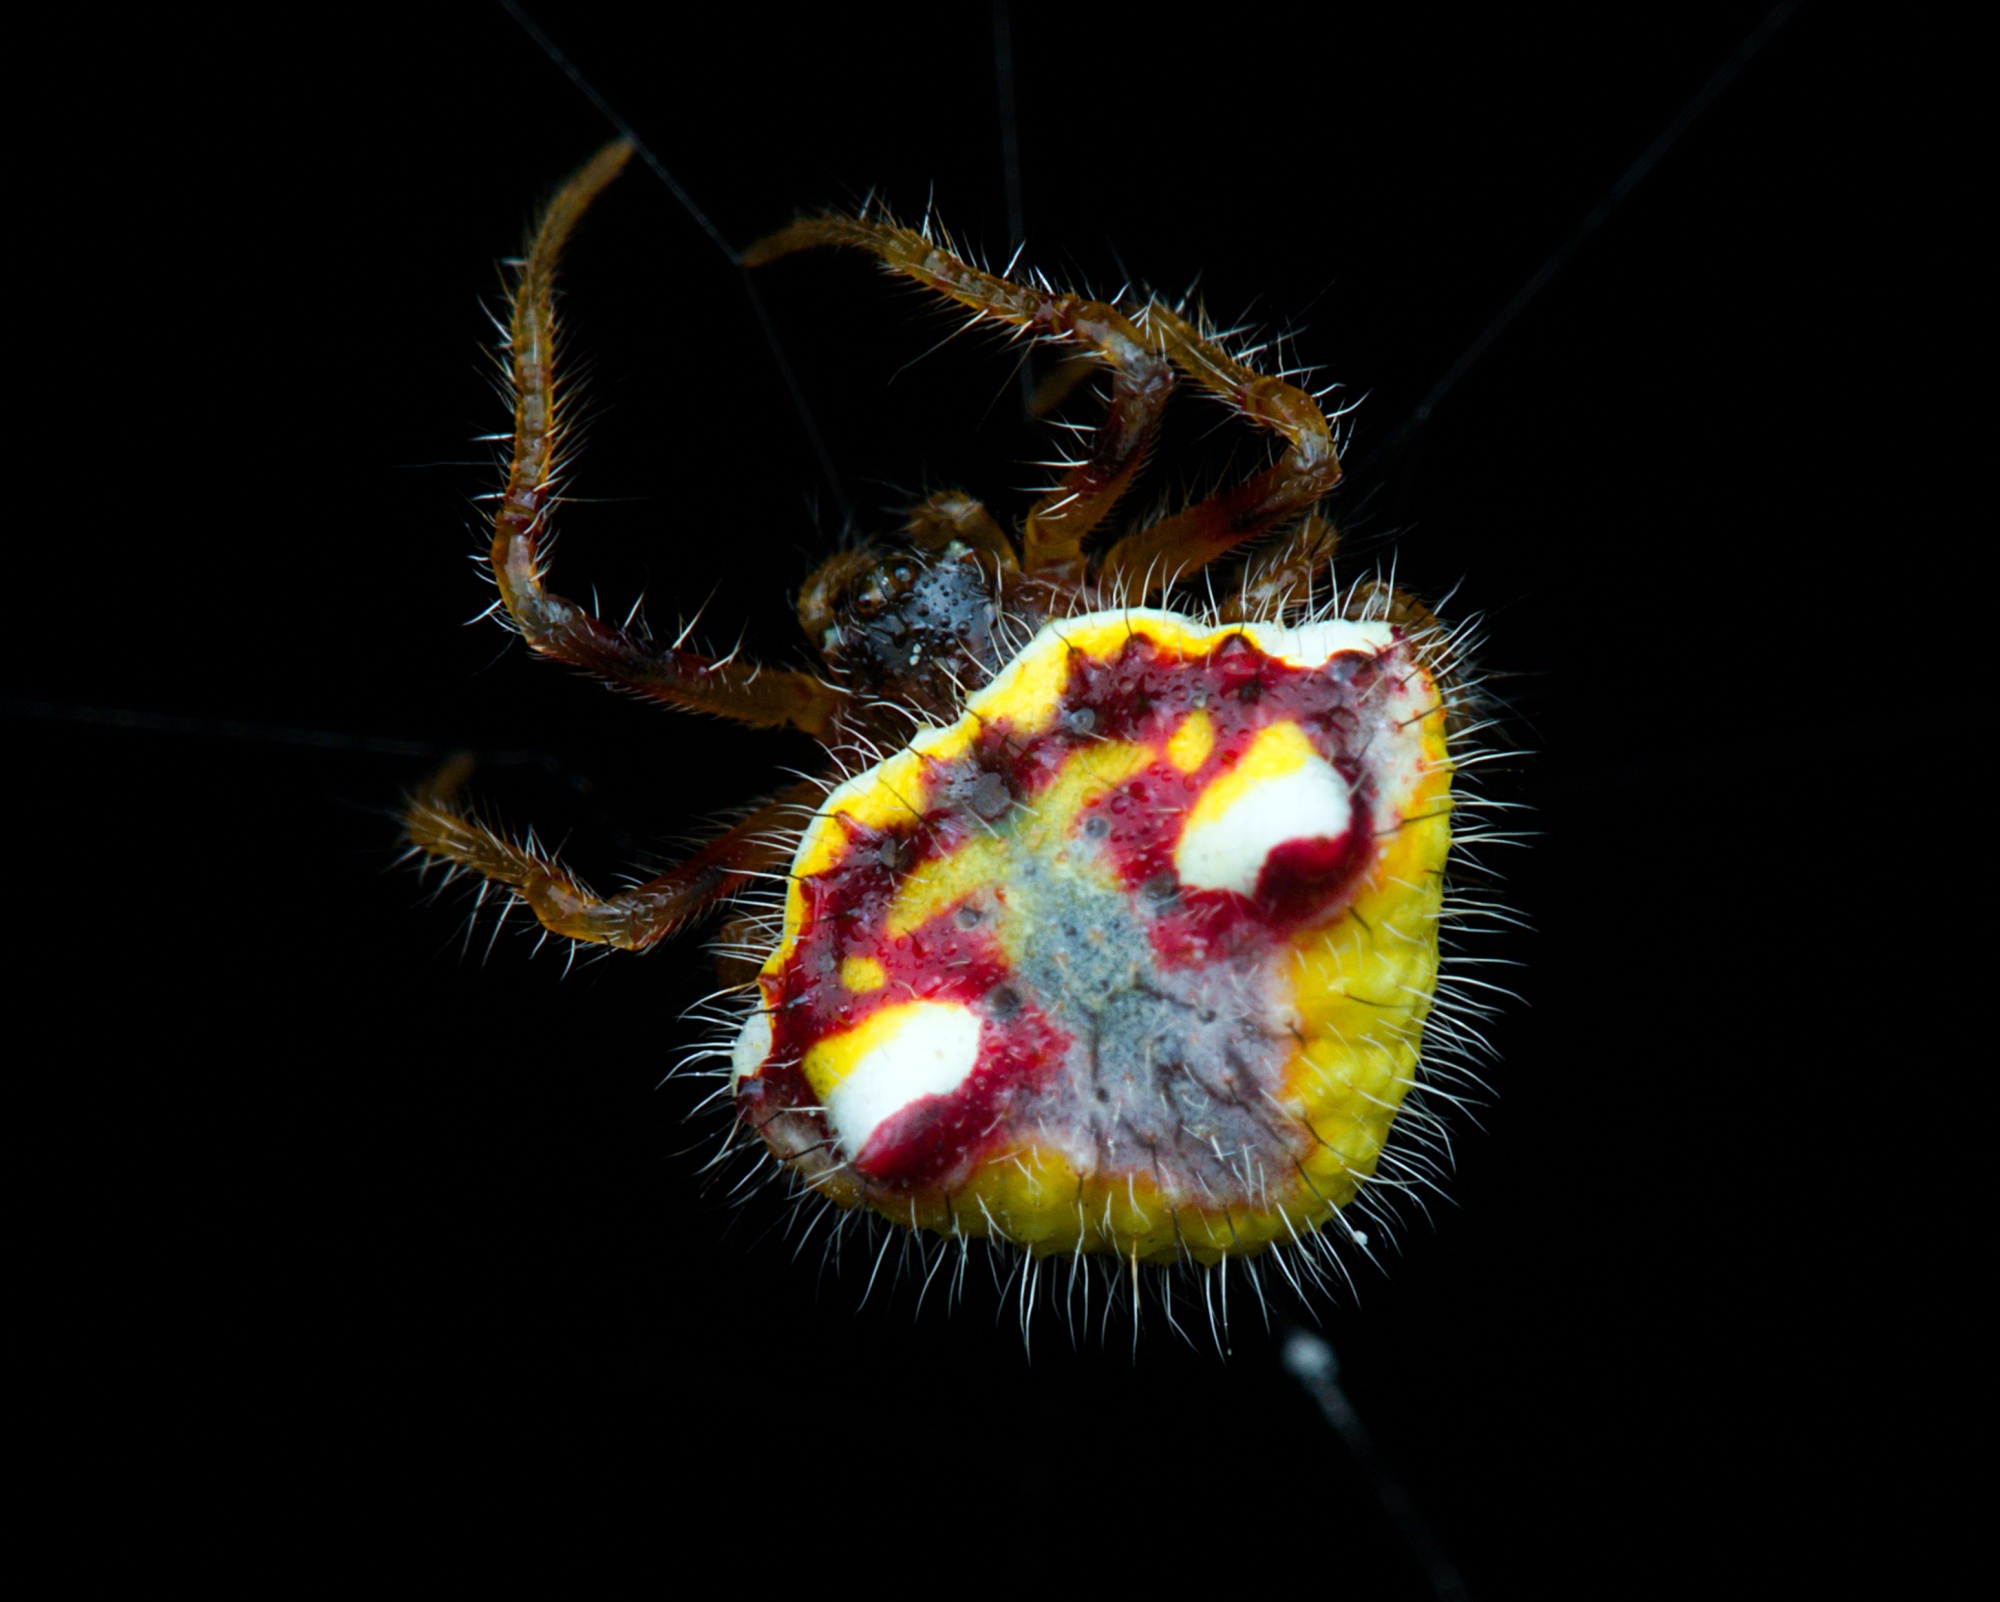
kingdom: Animalia
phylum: Arthropoda
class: Arachnida
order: Araneae
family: Araneidae
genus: Poecilopachys
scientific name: Poecilopachys australasia
